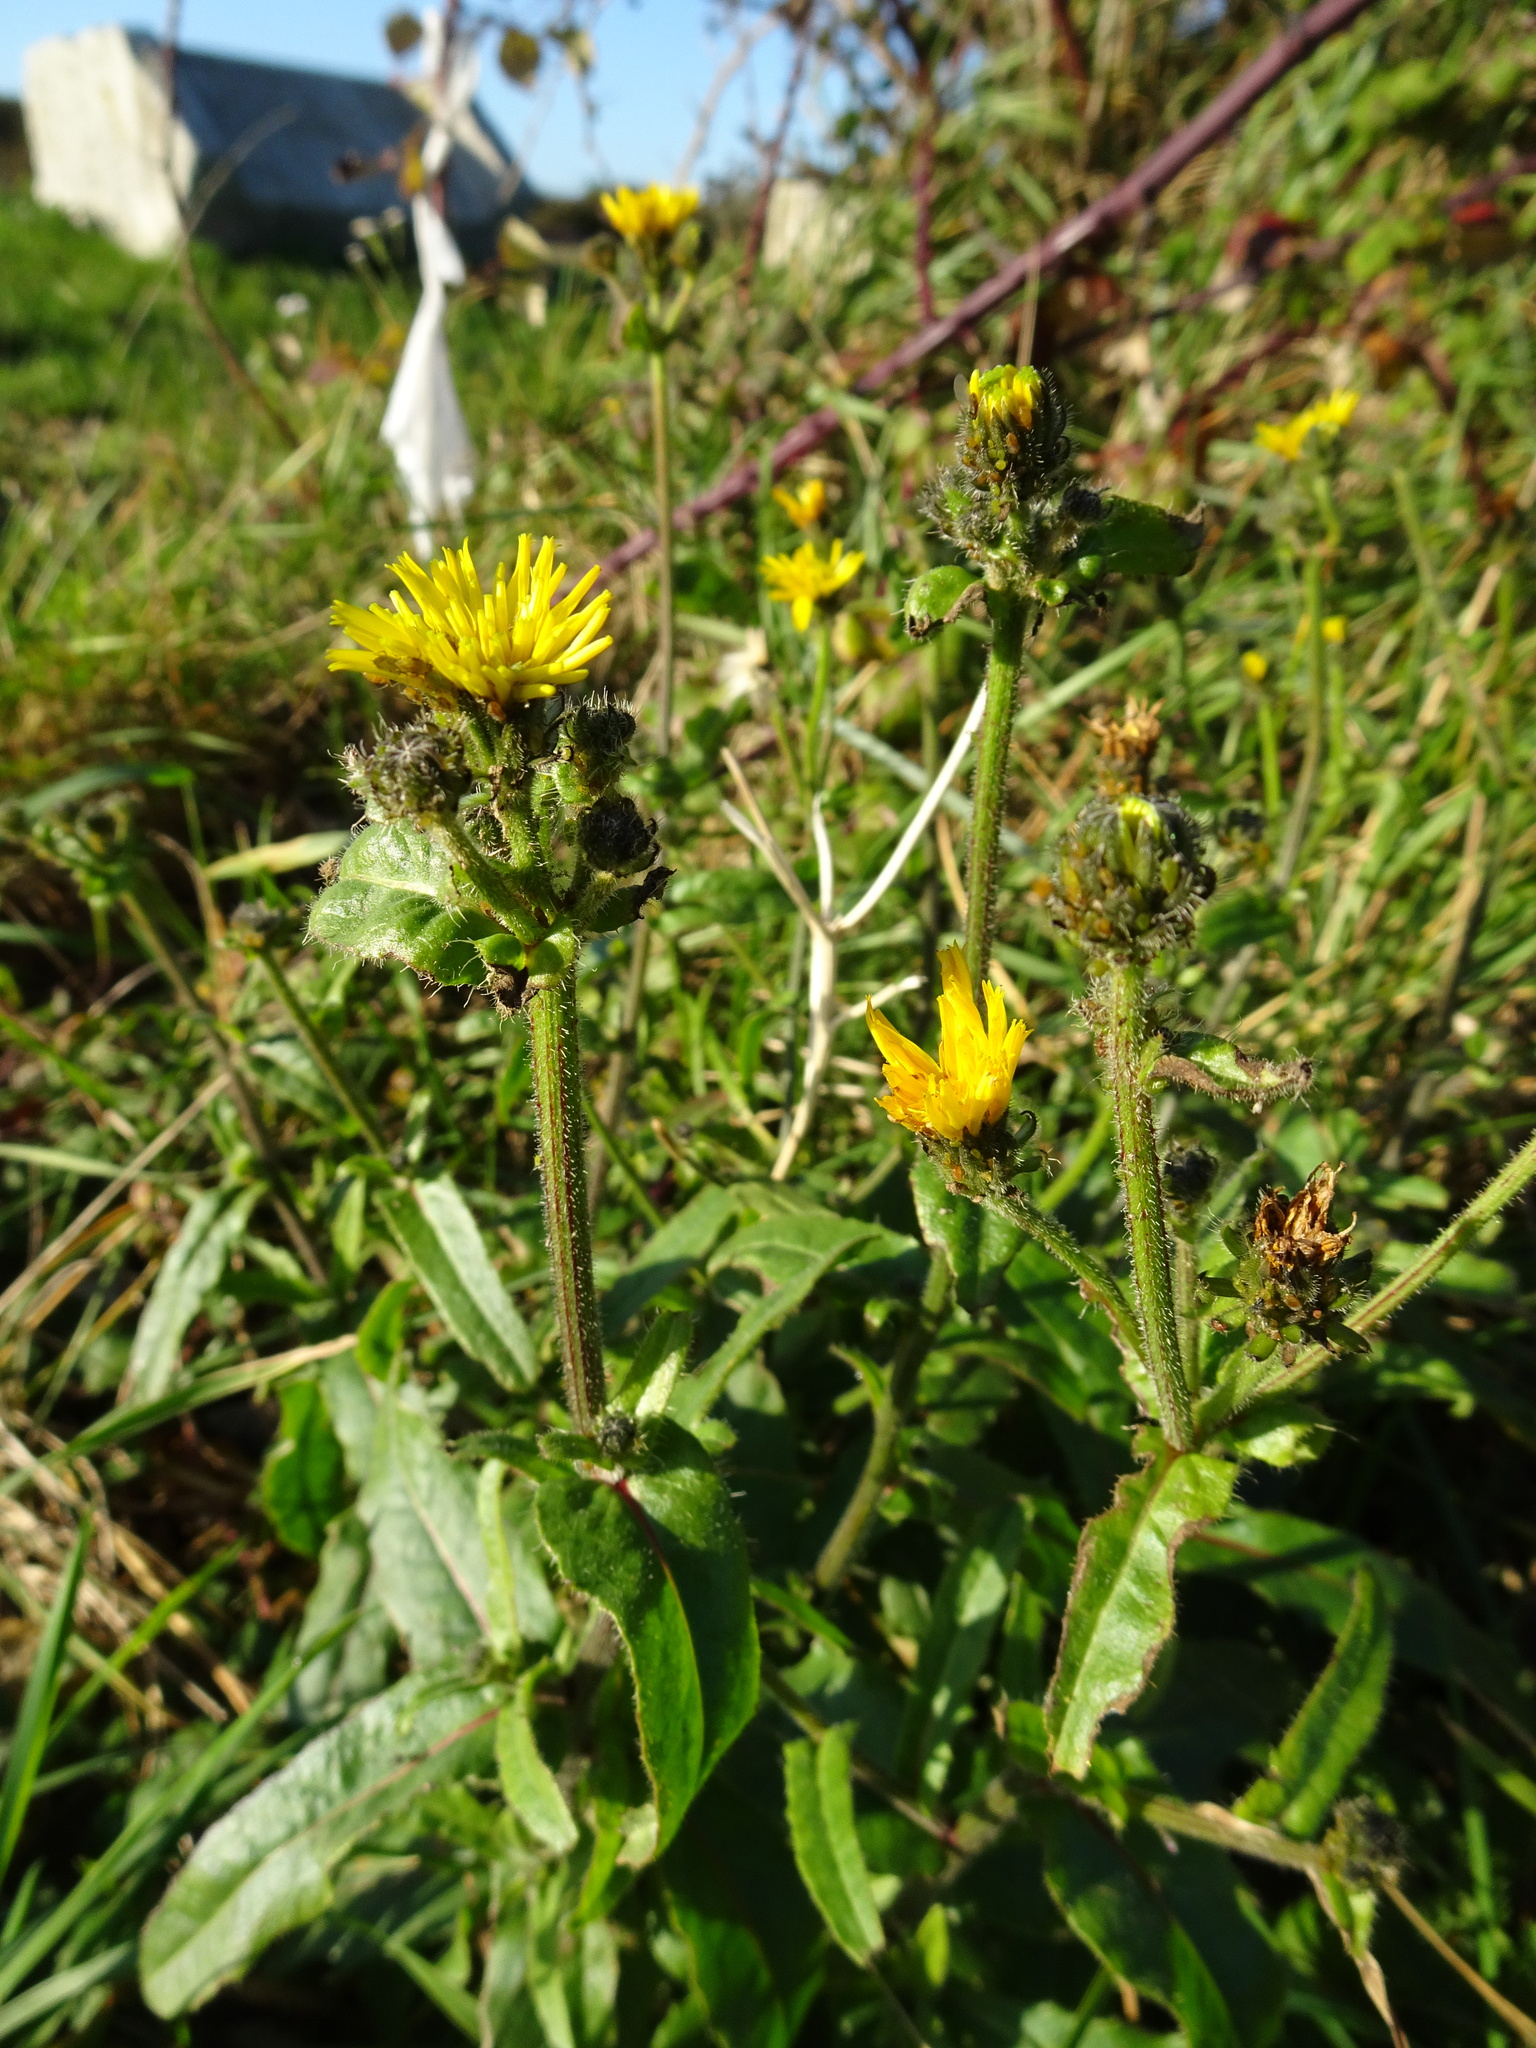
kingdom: Plantae
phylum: Tracheophyta
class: Magnoliopsida
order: Asterales
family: Asteraceae
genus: Picris
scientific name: Picris hieracioides
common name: Hawkweed oxtongue
